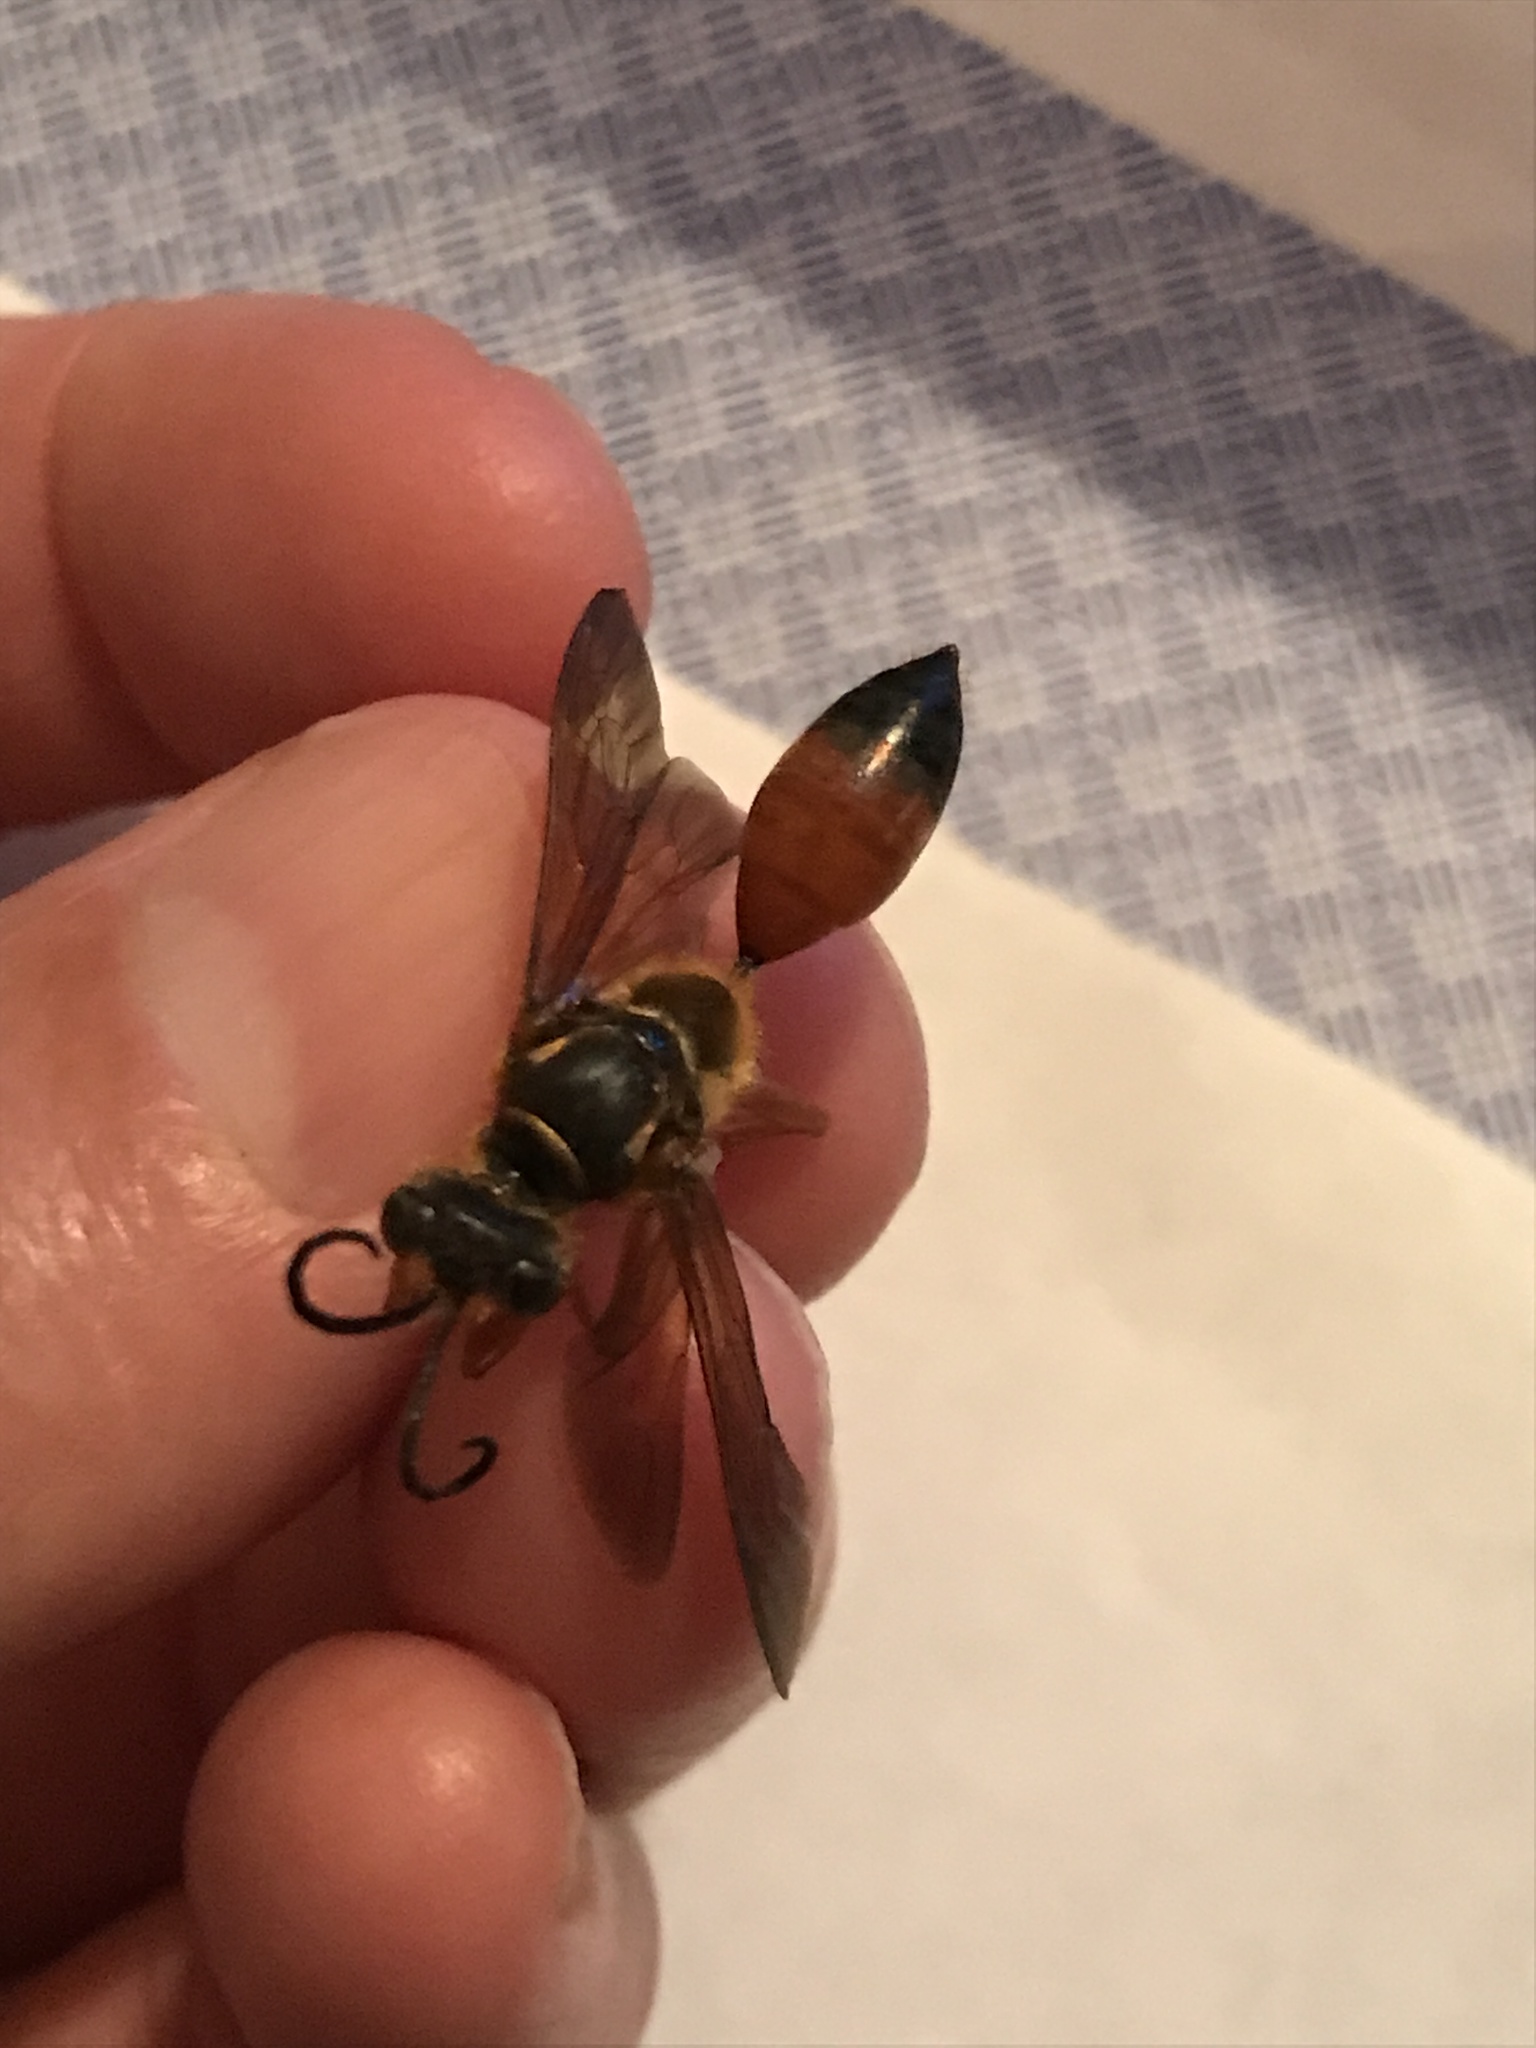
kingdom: Animalia
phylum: Arthropoda
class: Insecta
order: Hymenoptera
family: Sphecidae
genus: Sphex
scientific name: Sphex ichneumoneus
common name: Great golden digger wasp
